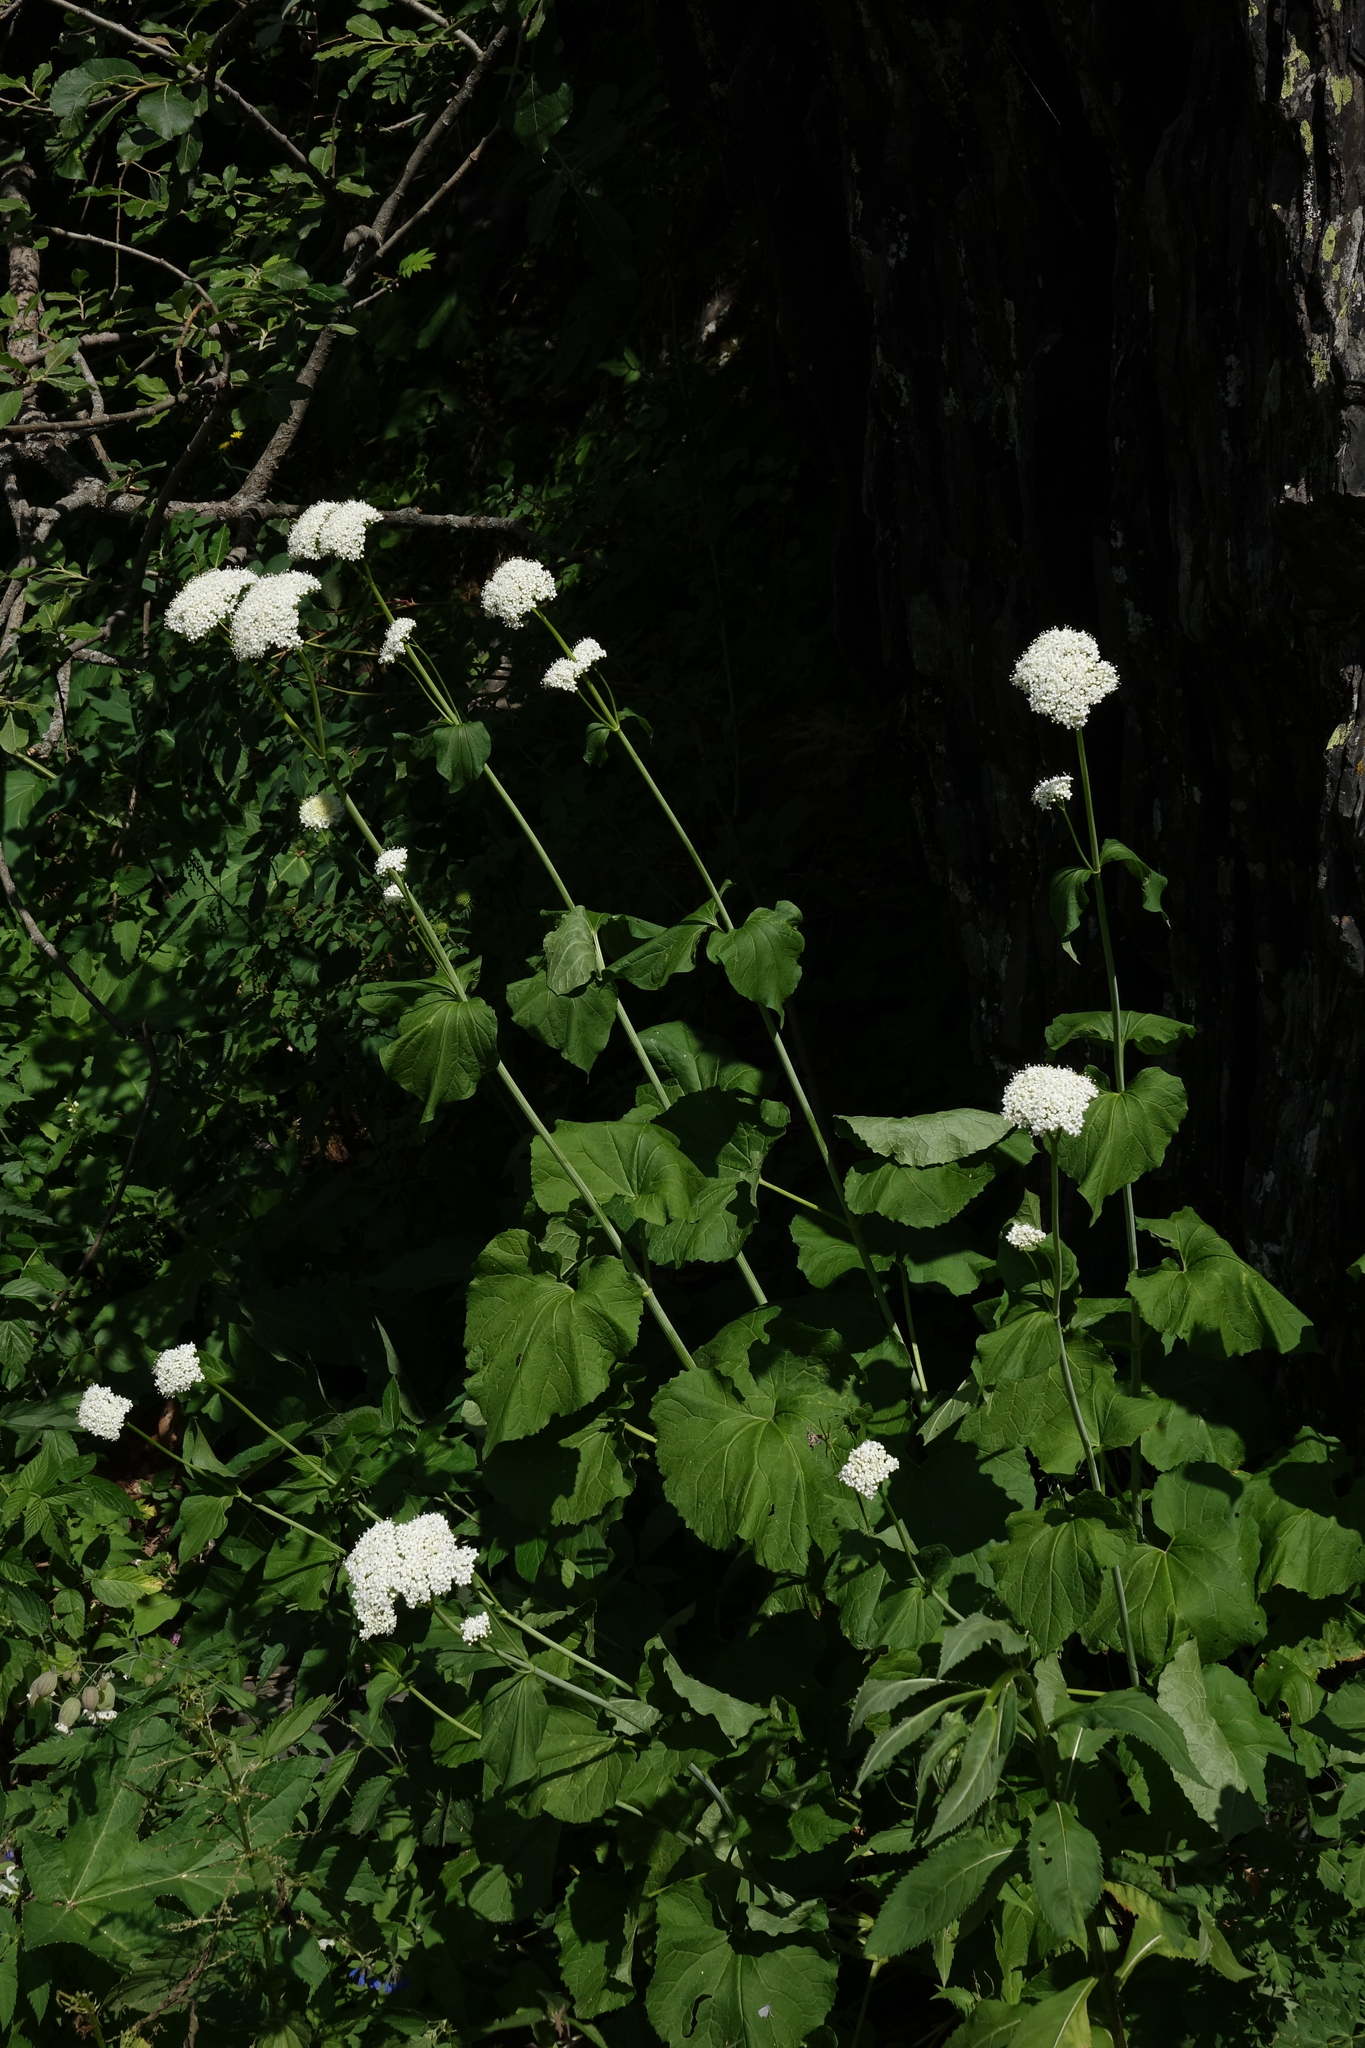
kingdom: Plantae
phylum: Tracheophyta
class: Magnoliopsida
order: Dipsacales
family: Caprifoliaceae
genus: Valeriana
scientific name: Valeriana alliariifolia
